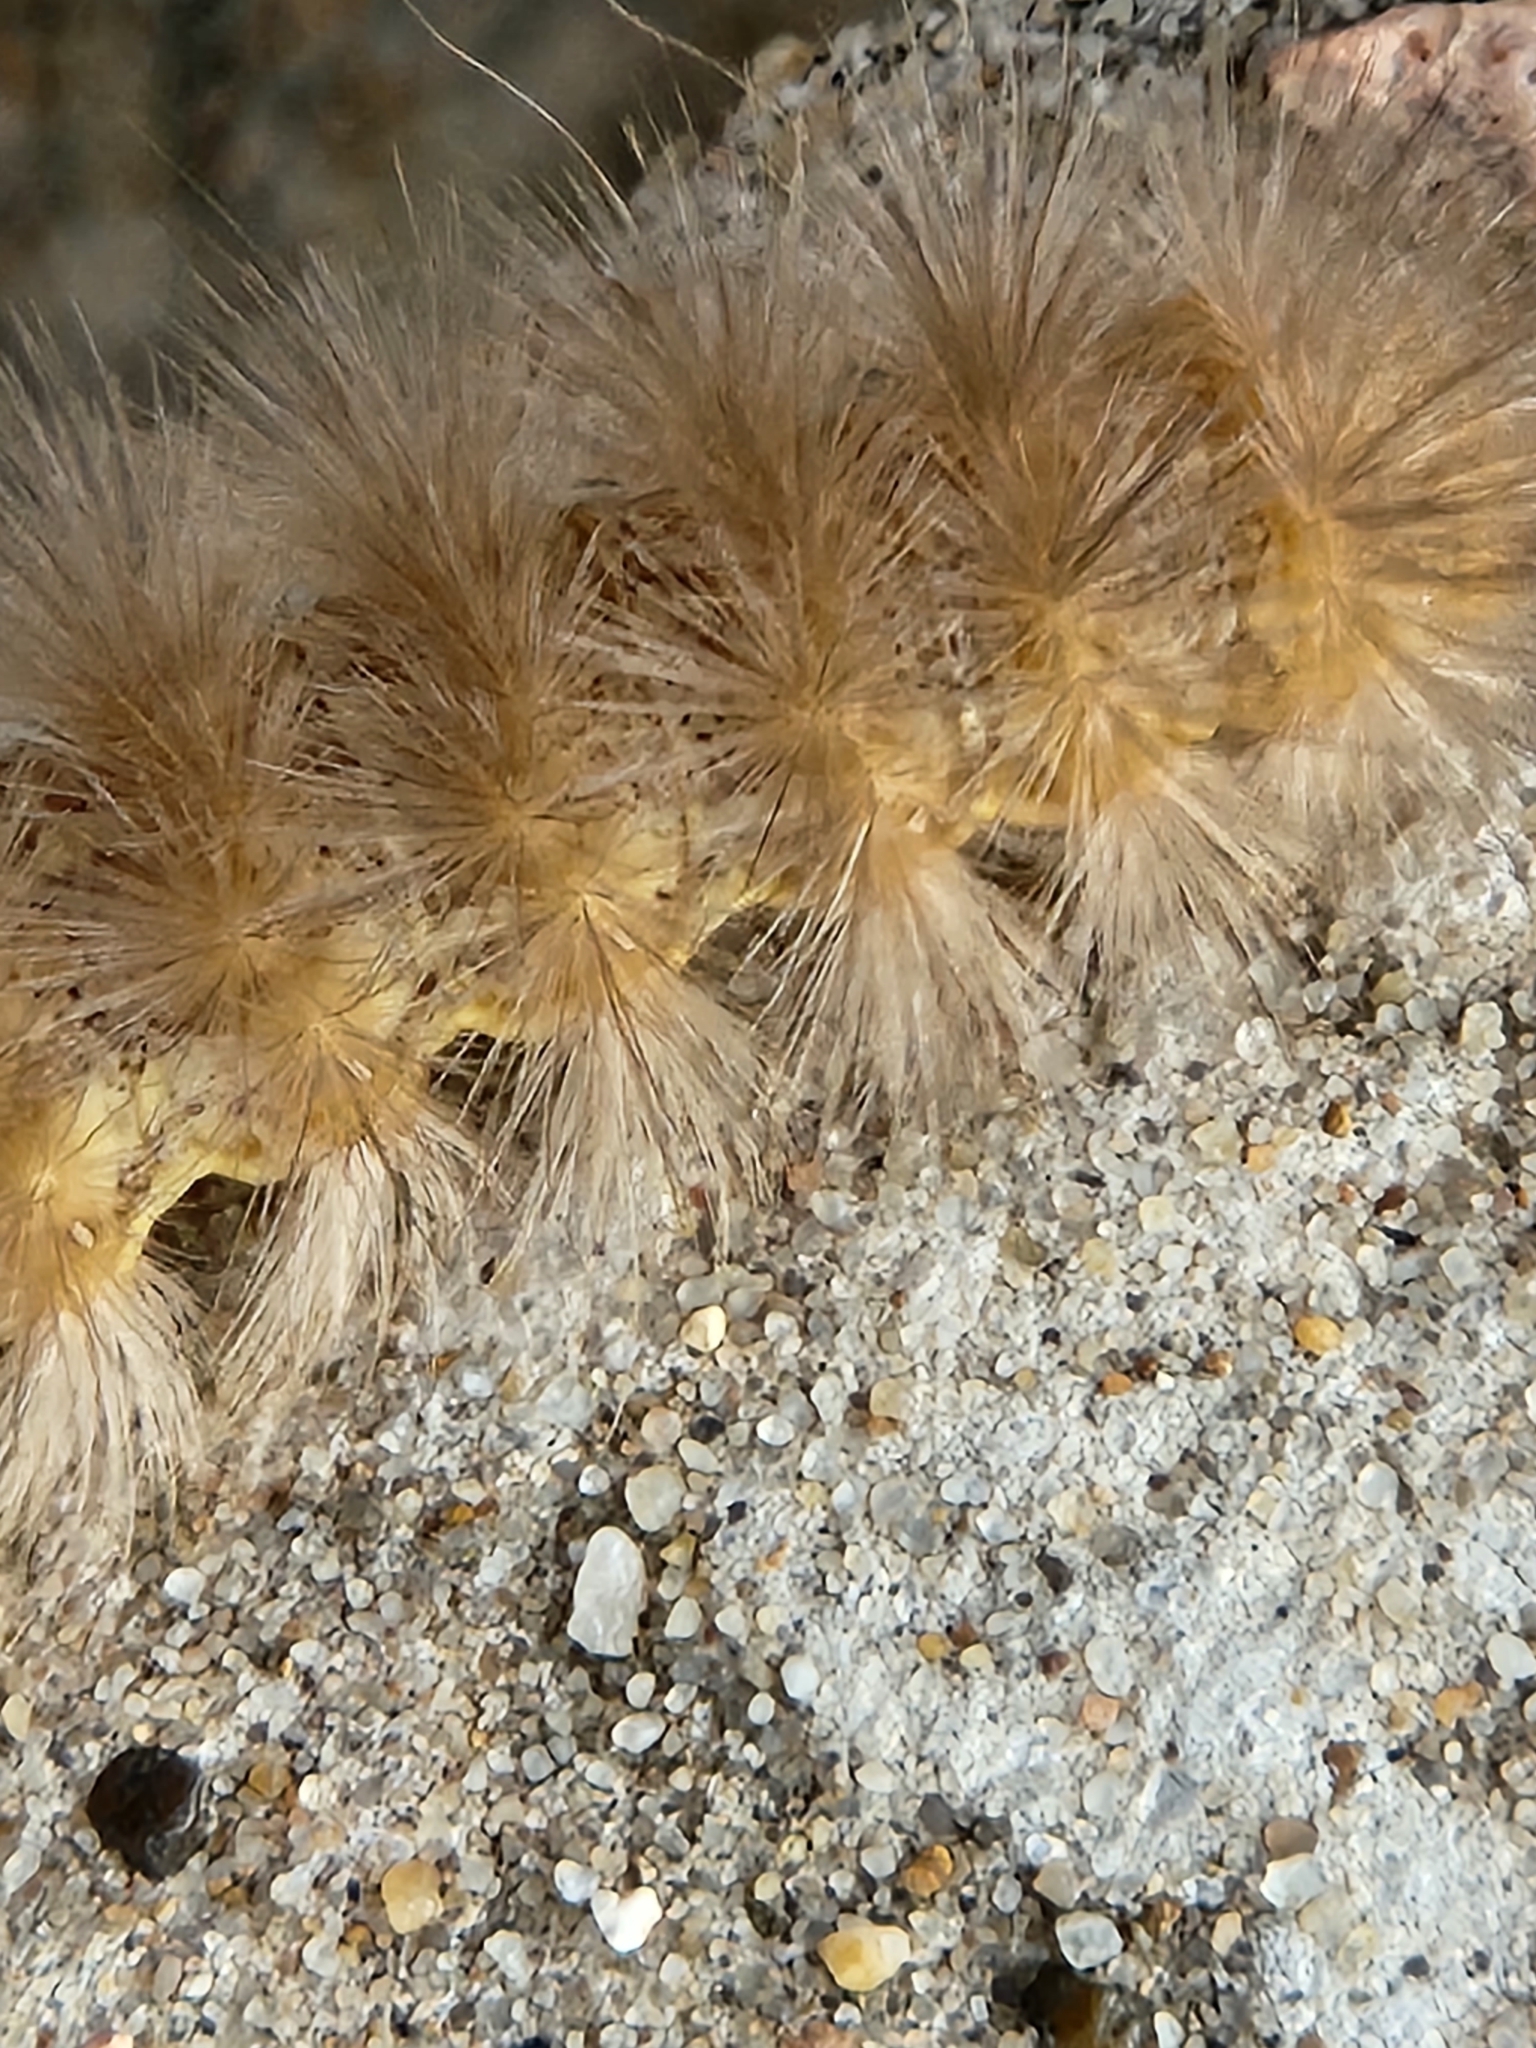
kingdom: Animalia
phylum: Arthropoda
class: Insecta
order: Lepidoptera
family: Erebidae
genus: Estigmene
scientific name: Estigmene acrea
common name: Salt marsh moth
